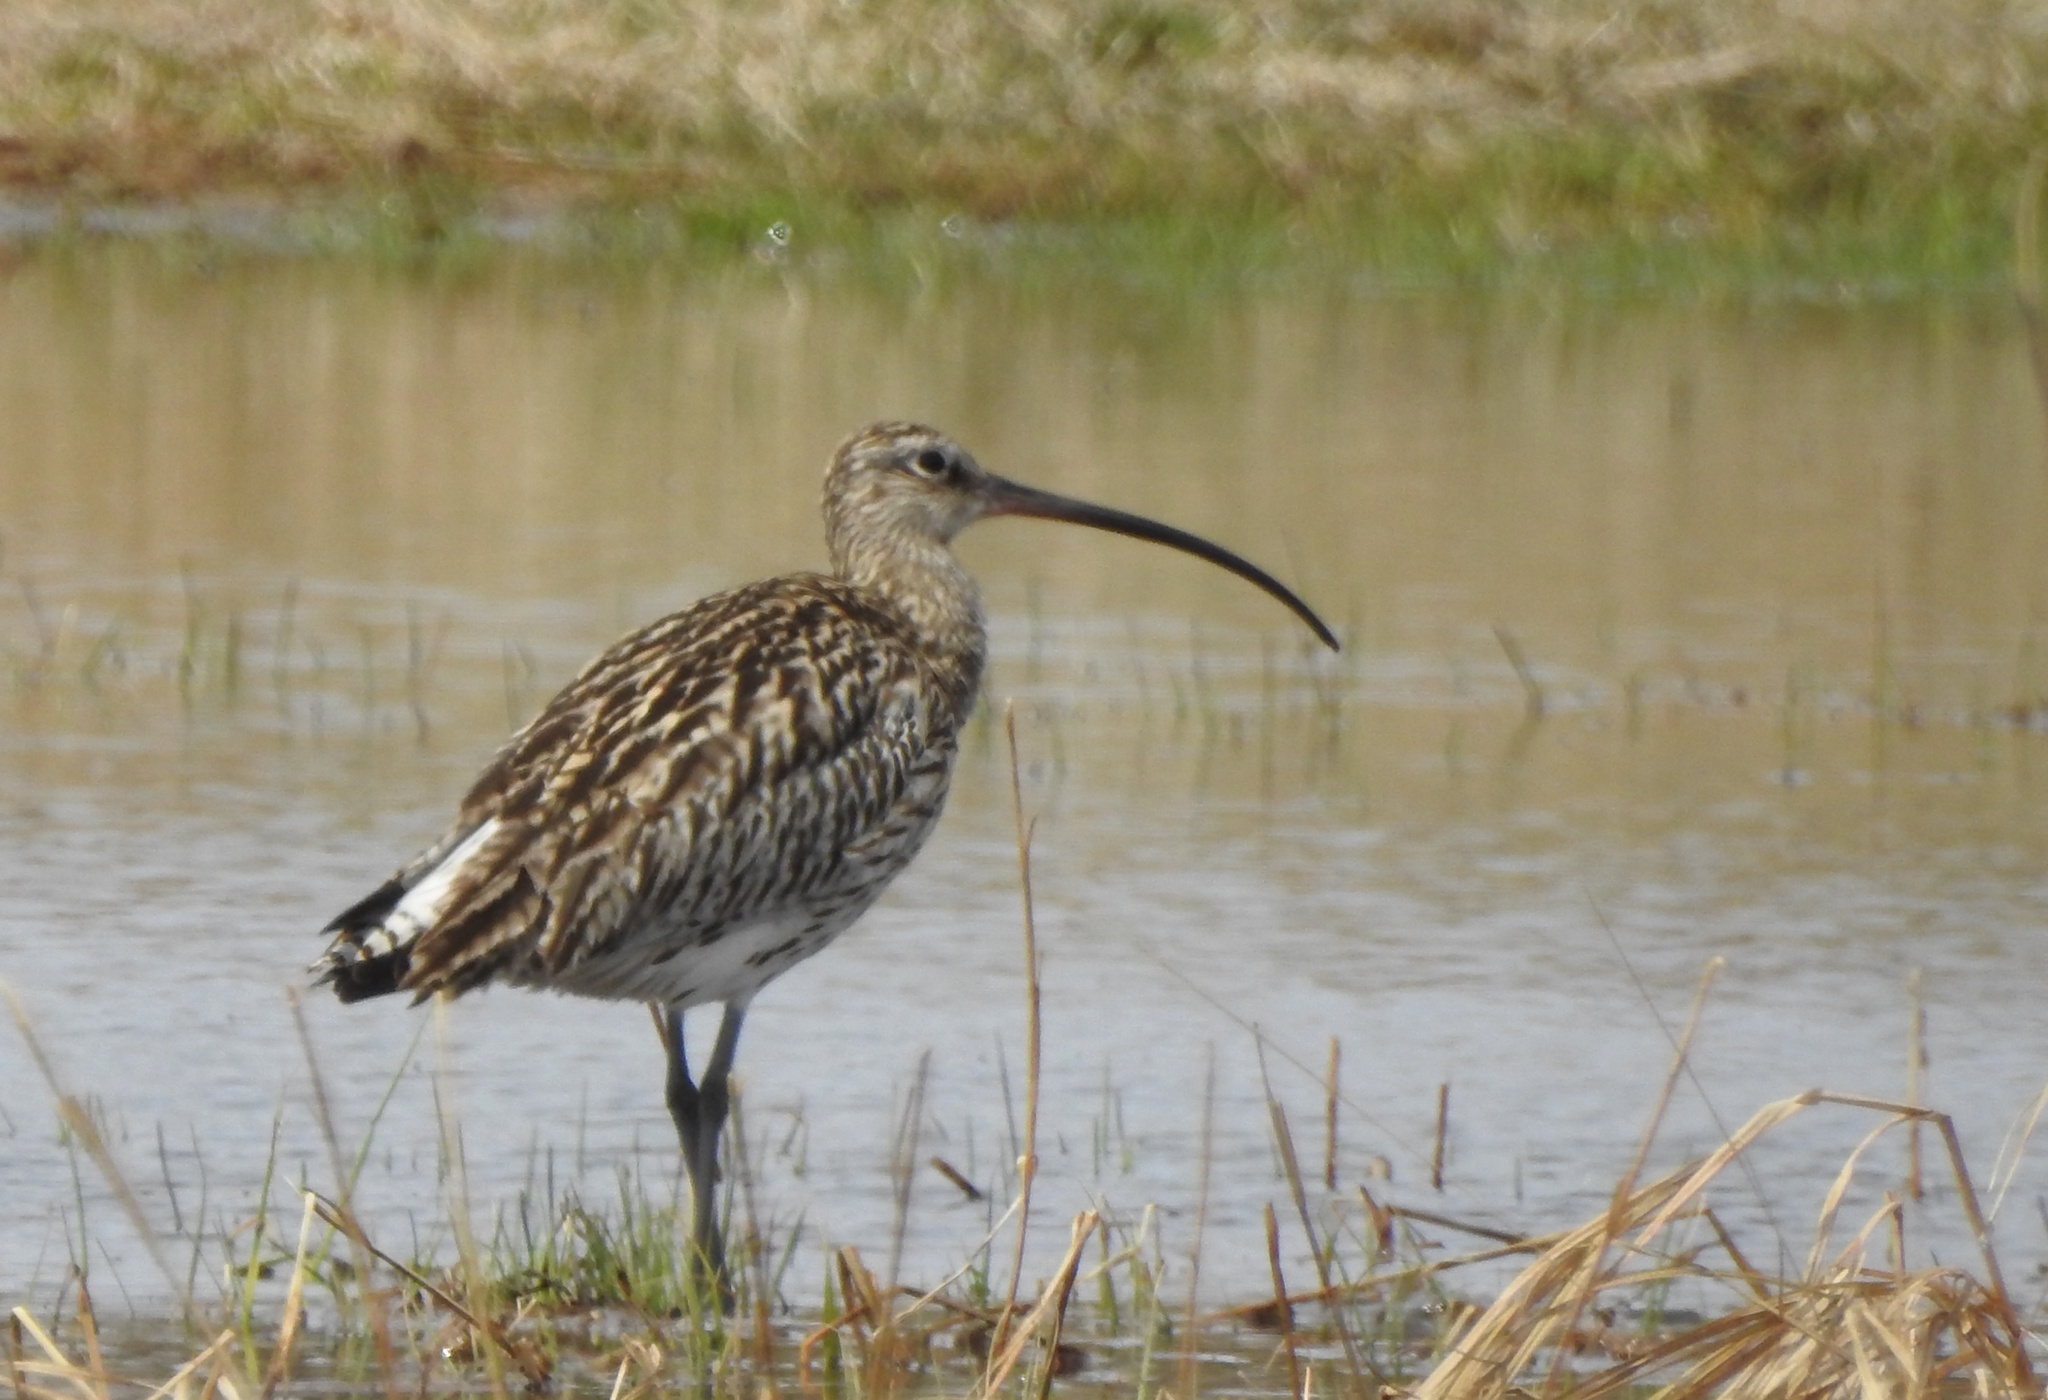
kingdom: Animalia
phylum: Chordata
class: Aves
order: Charadriiformes
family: Scolopacidae
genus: Numenius
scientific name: Numenius arquata
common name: Eurasian curlew
